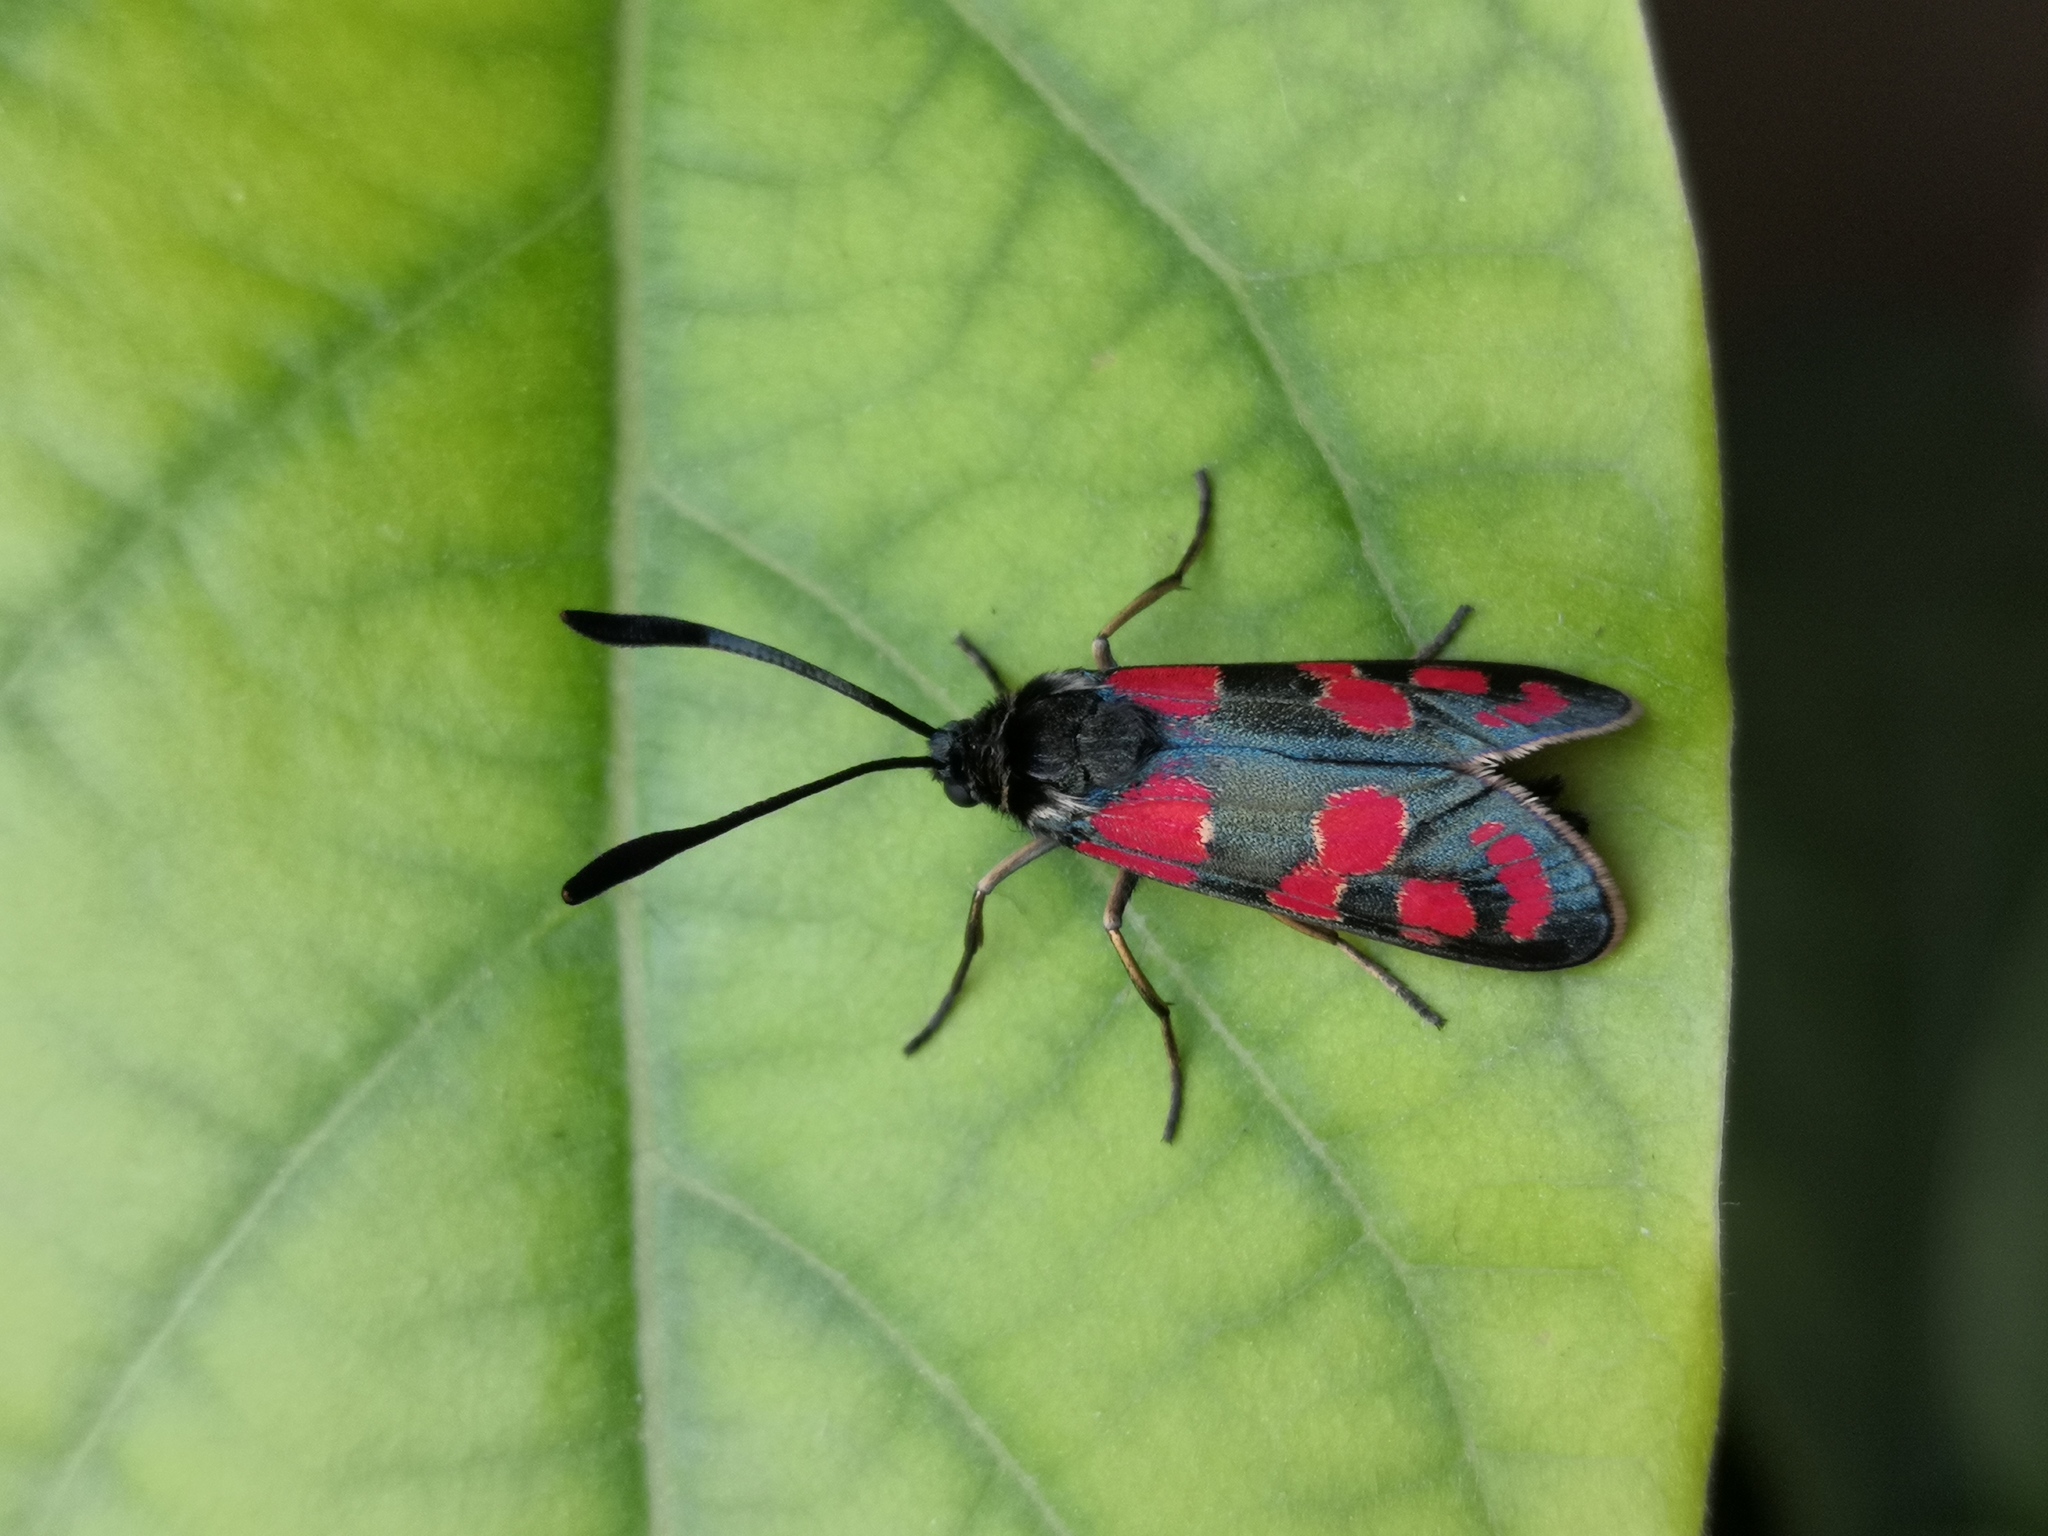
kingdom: Animalia
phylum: Arthropoda
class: Insecta
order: Lepidoptera
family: Zygaenidae
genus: Zygaena
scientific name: Zygaena carniolica
